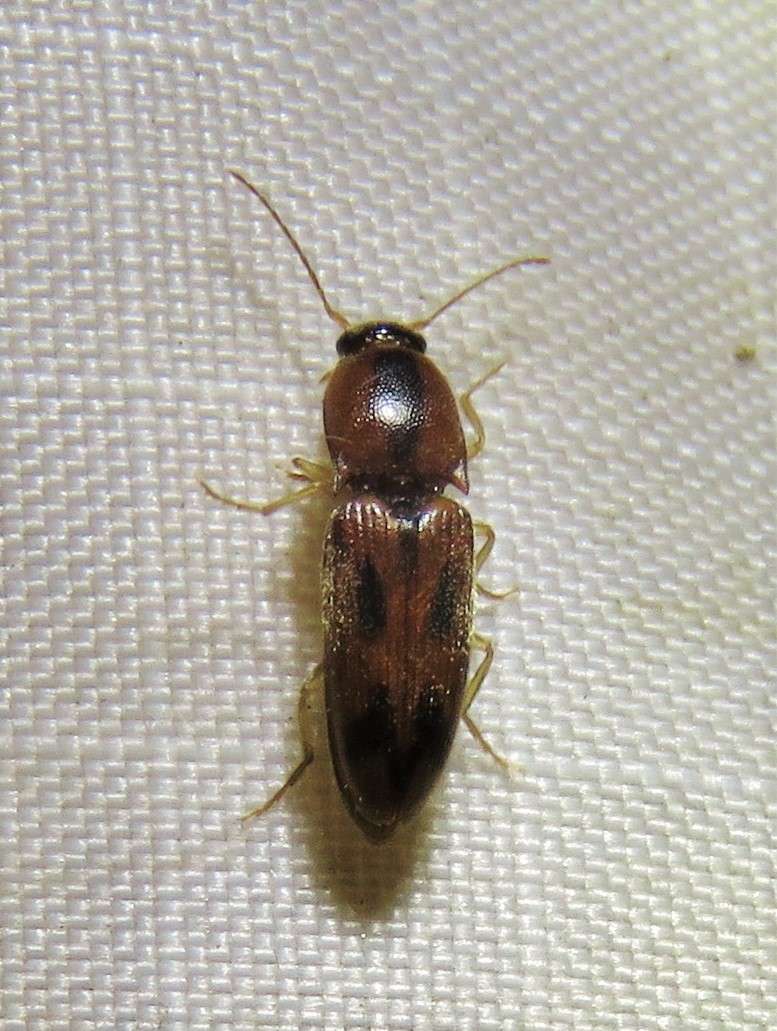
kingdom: Animalia
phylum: Arthropoda
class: Insecta
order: Coleoptera
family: Elateridae
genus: Aeolus
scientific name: Aeolus mellillus
